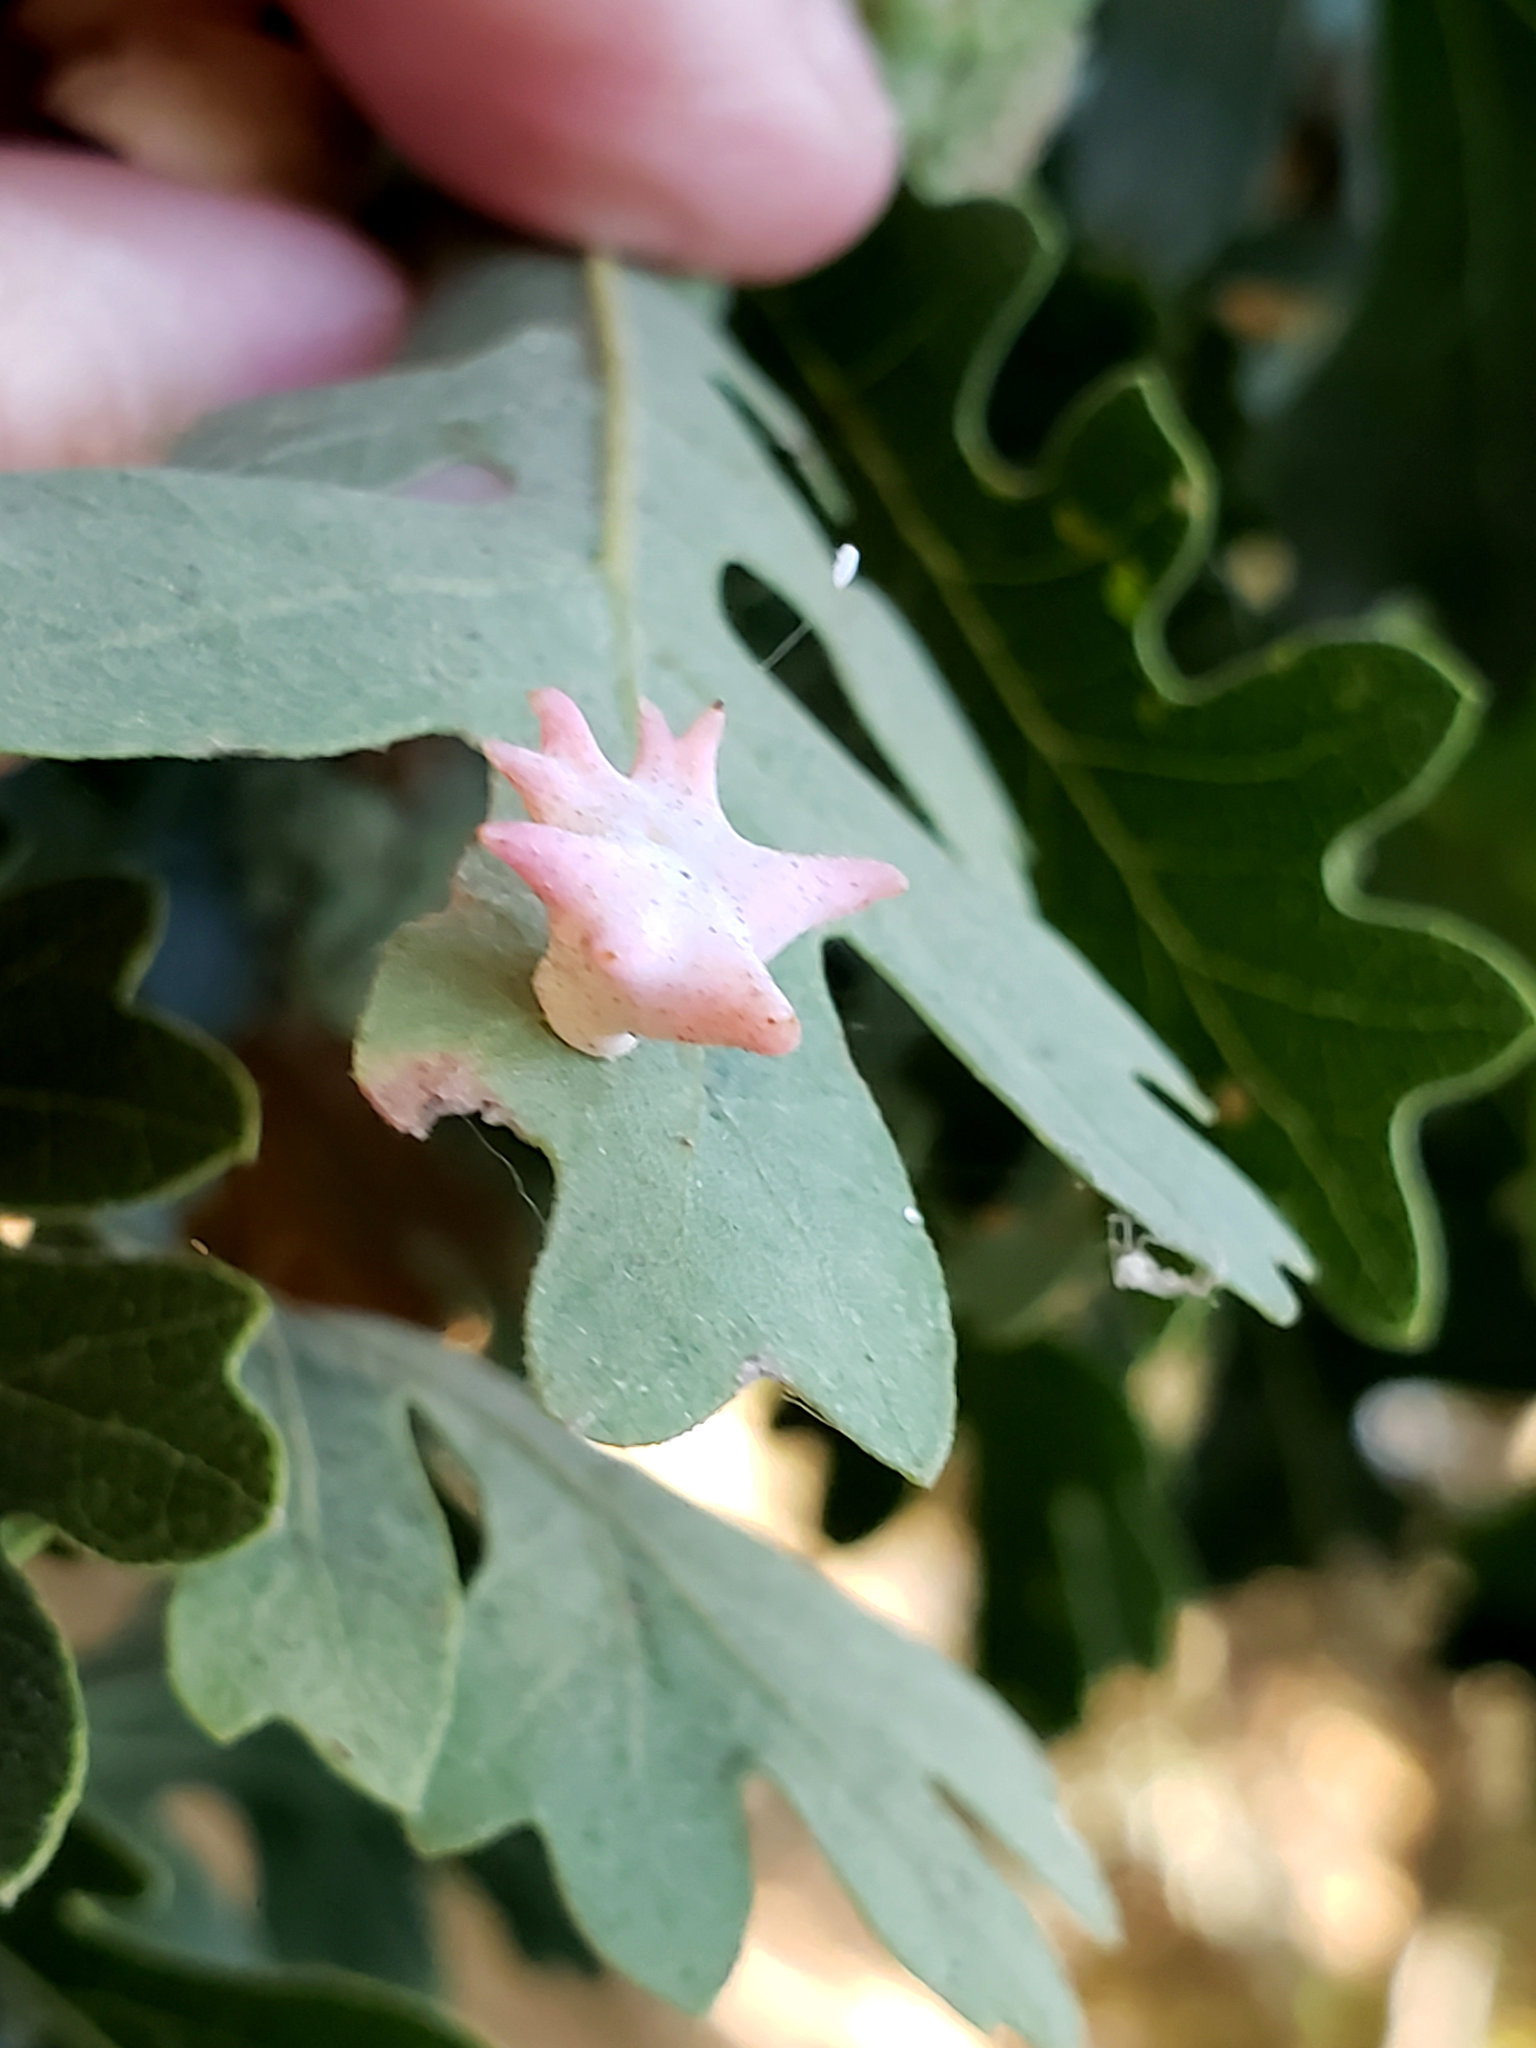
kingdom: Animalia
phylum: Arthropoda
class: Insecta
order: Hymenoptera
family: Cynipidae
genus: Cynips
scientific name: Cynips douglasi
